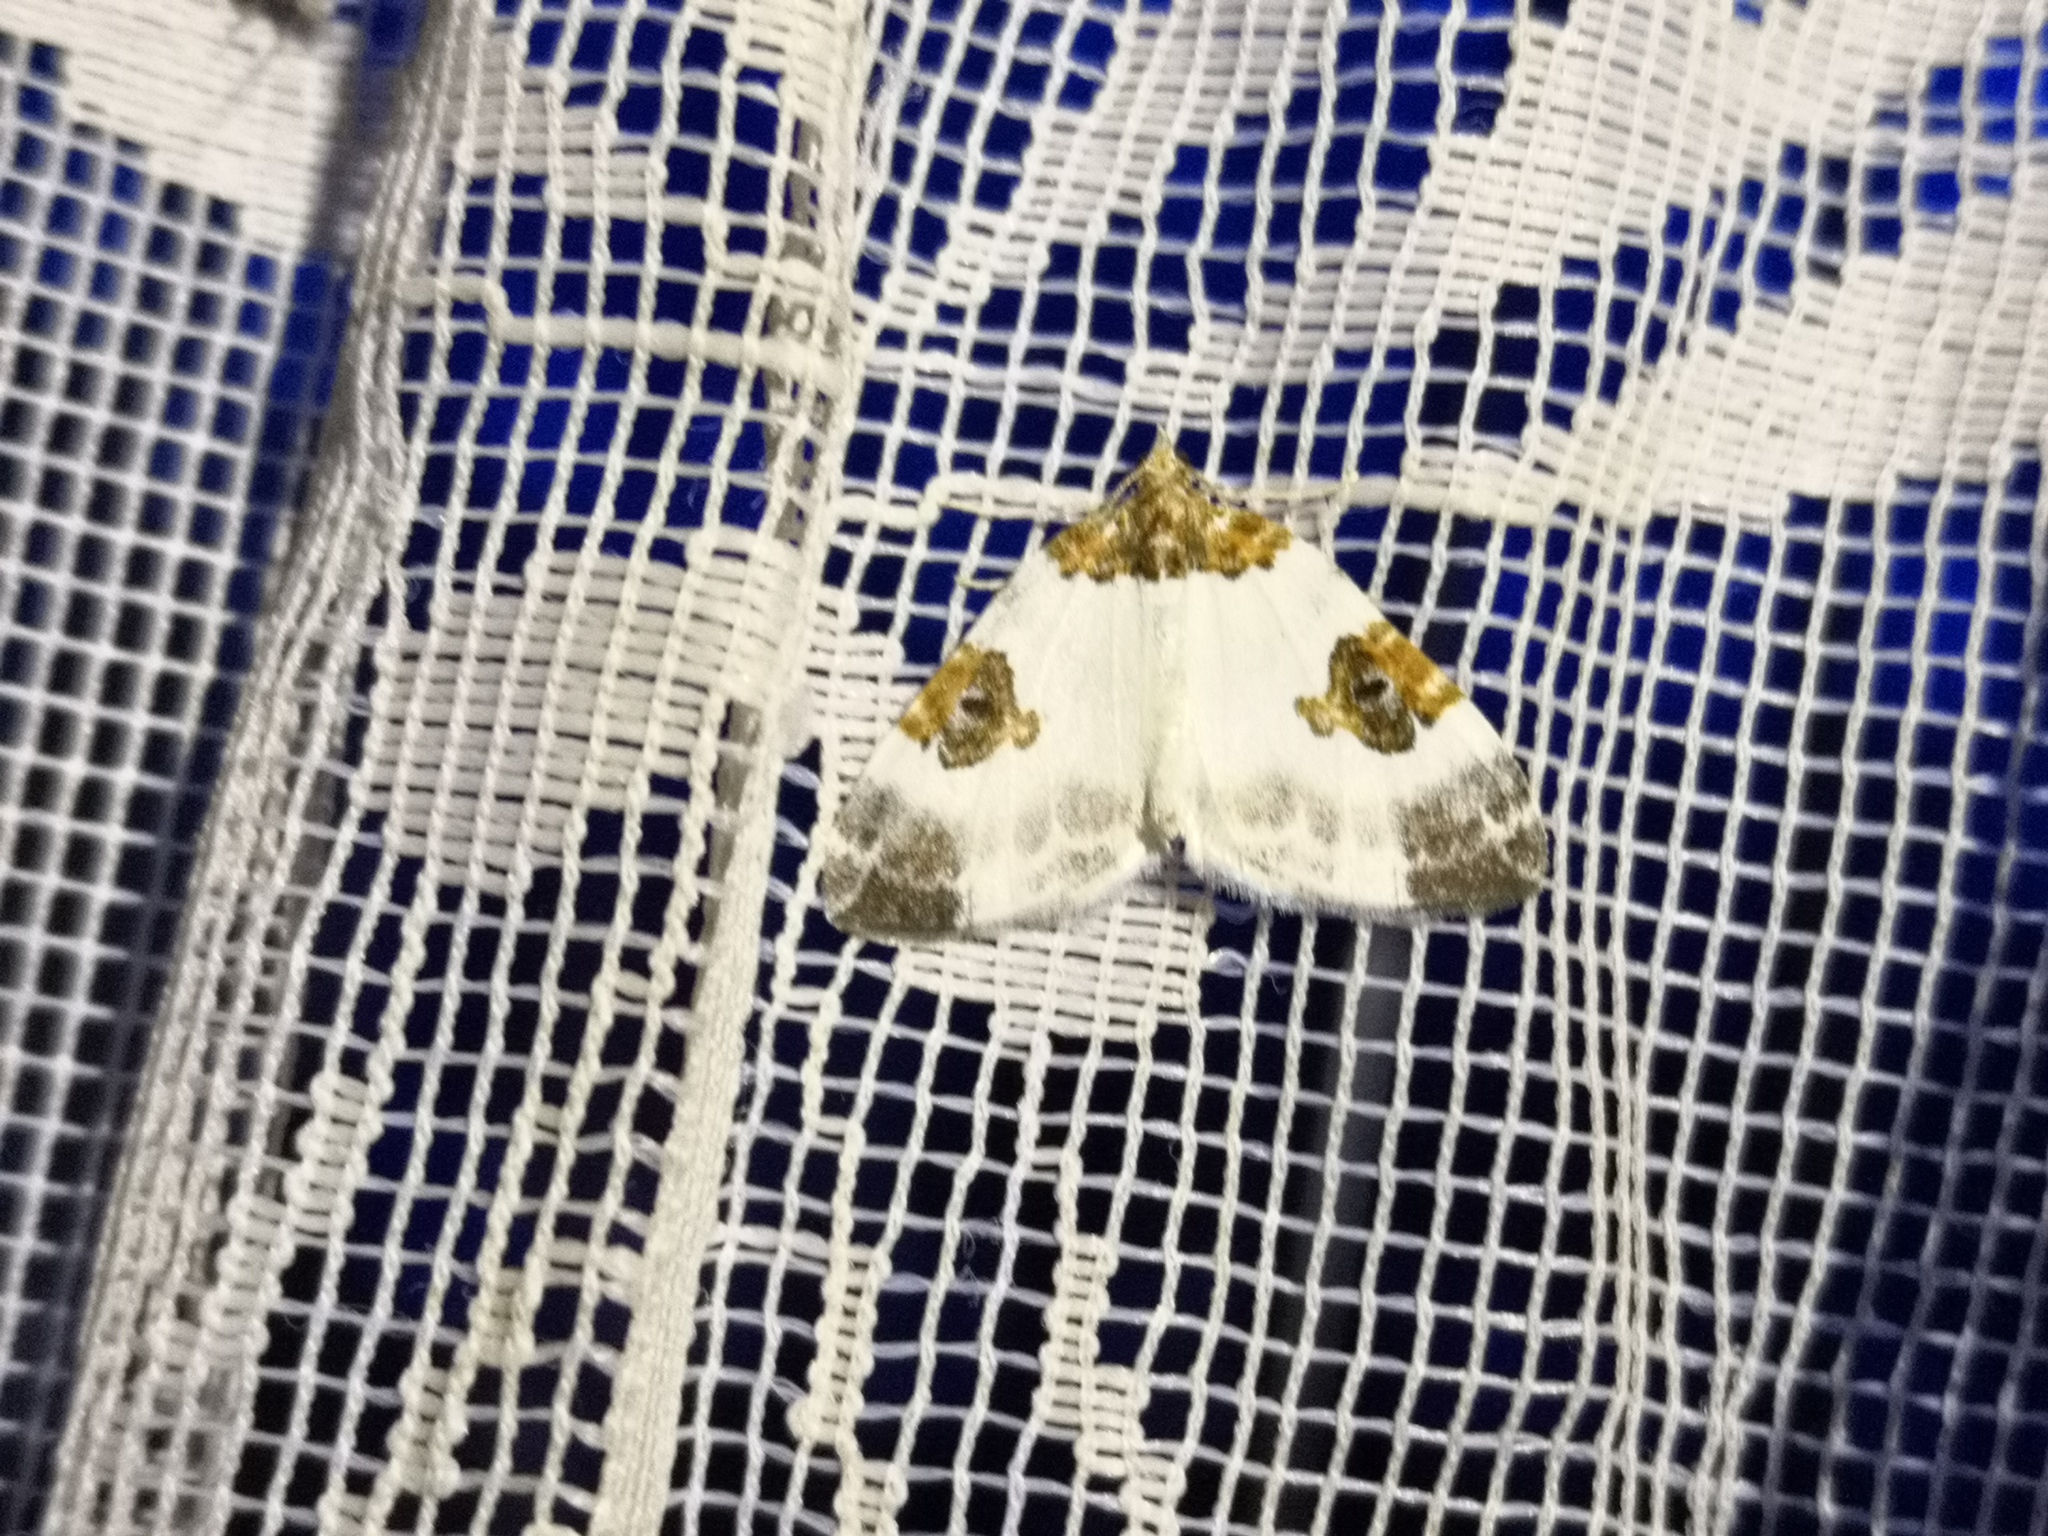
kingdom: Animalia
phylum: Arthropoda
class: Insecta
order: Lepidoptera
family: Geometridae
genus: Plemyria
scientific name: Plemyria rubiginata
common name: Blue-bordered carpet
